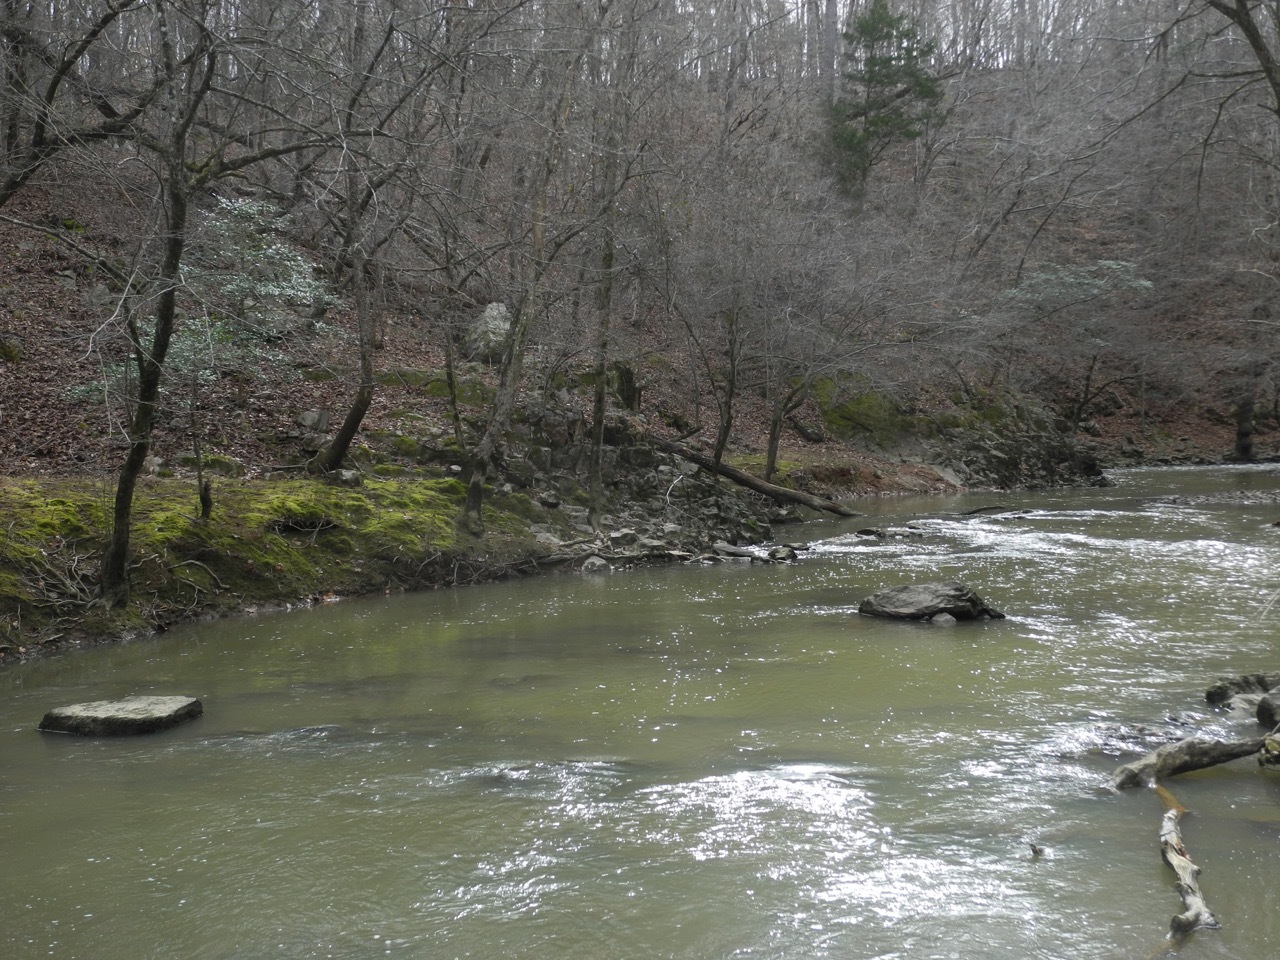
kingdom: Plantae
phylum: Tracheophyta
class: Polypodiopsida
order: Polypodiales
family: Dryopteridaceae
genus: Dryopteris
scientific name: Dryopteris marginalis
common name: Marginal wood fern
